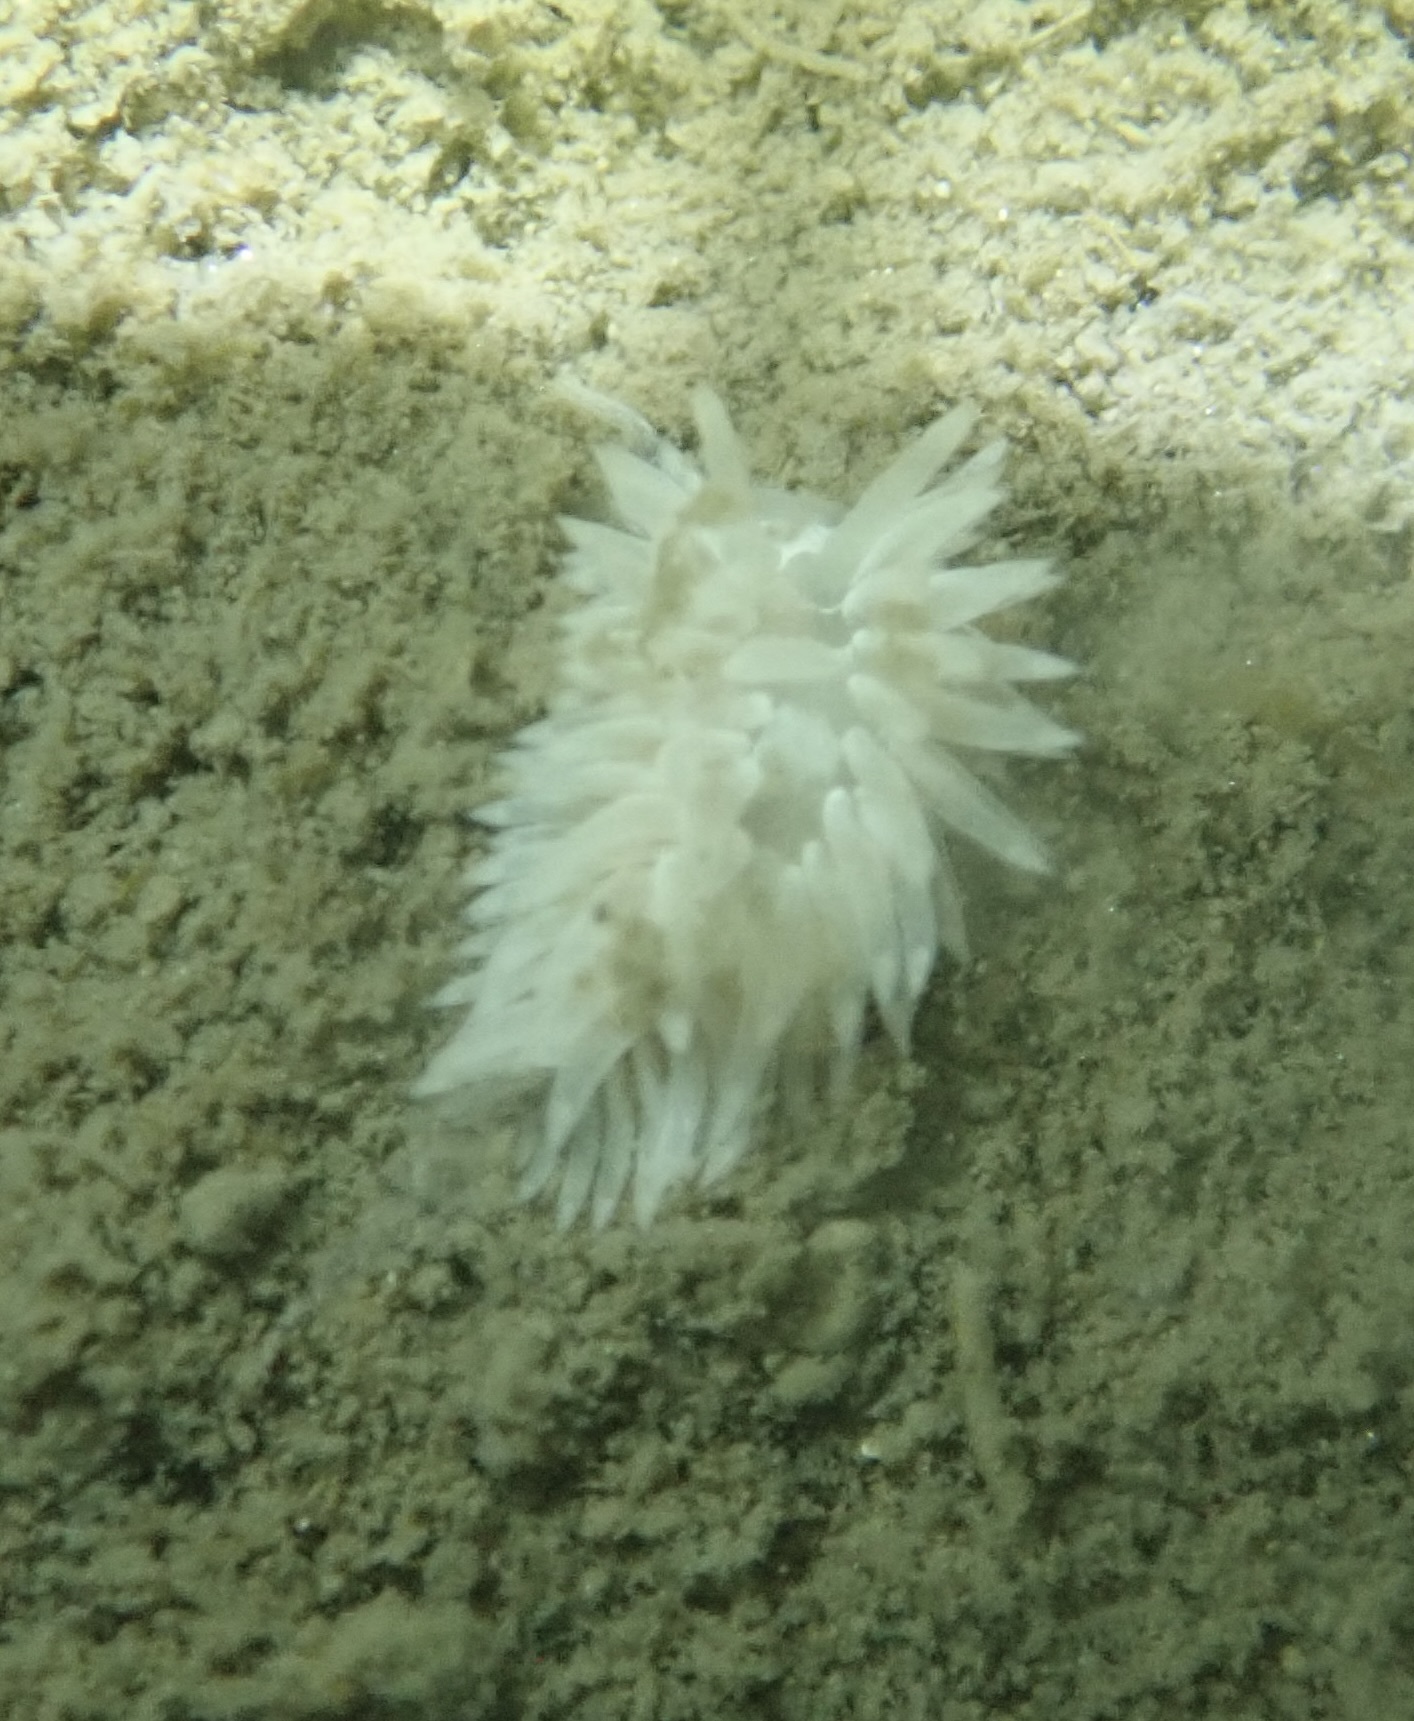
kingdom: Animalia
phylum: Mollusca
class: Gastropoda
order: Nudibranchia
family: Aeolidiidae
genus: Aeolidia
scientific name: Aeolidia loui
